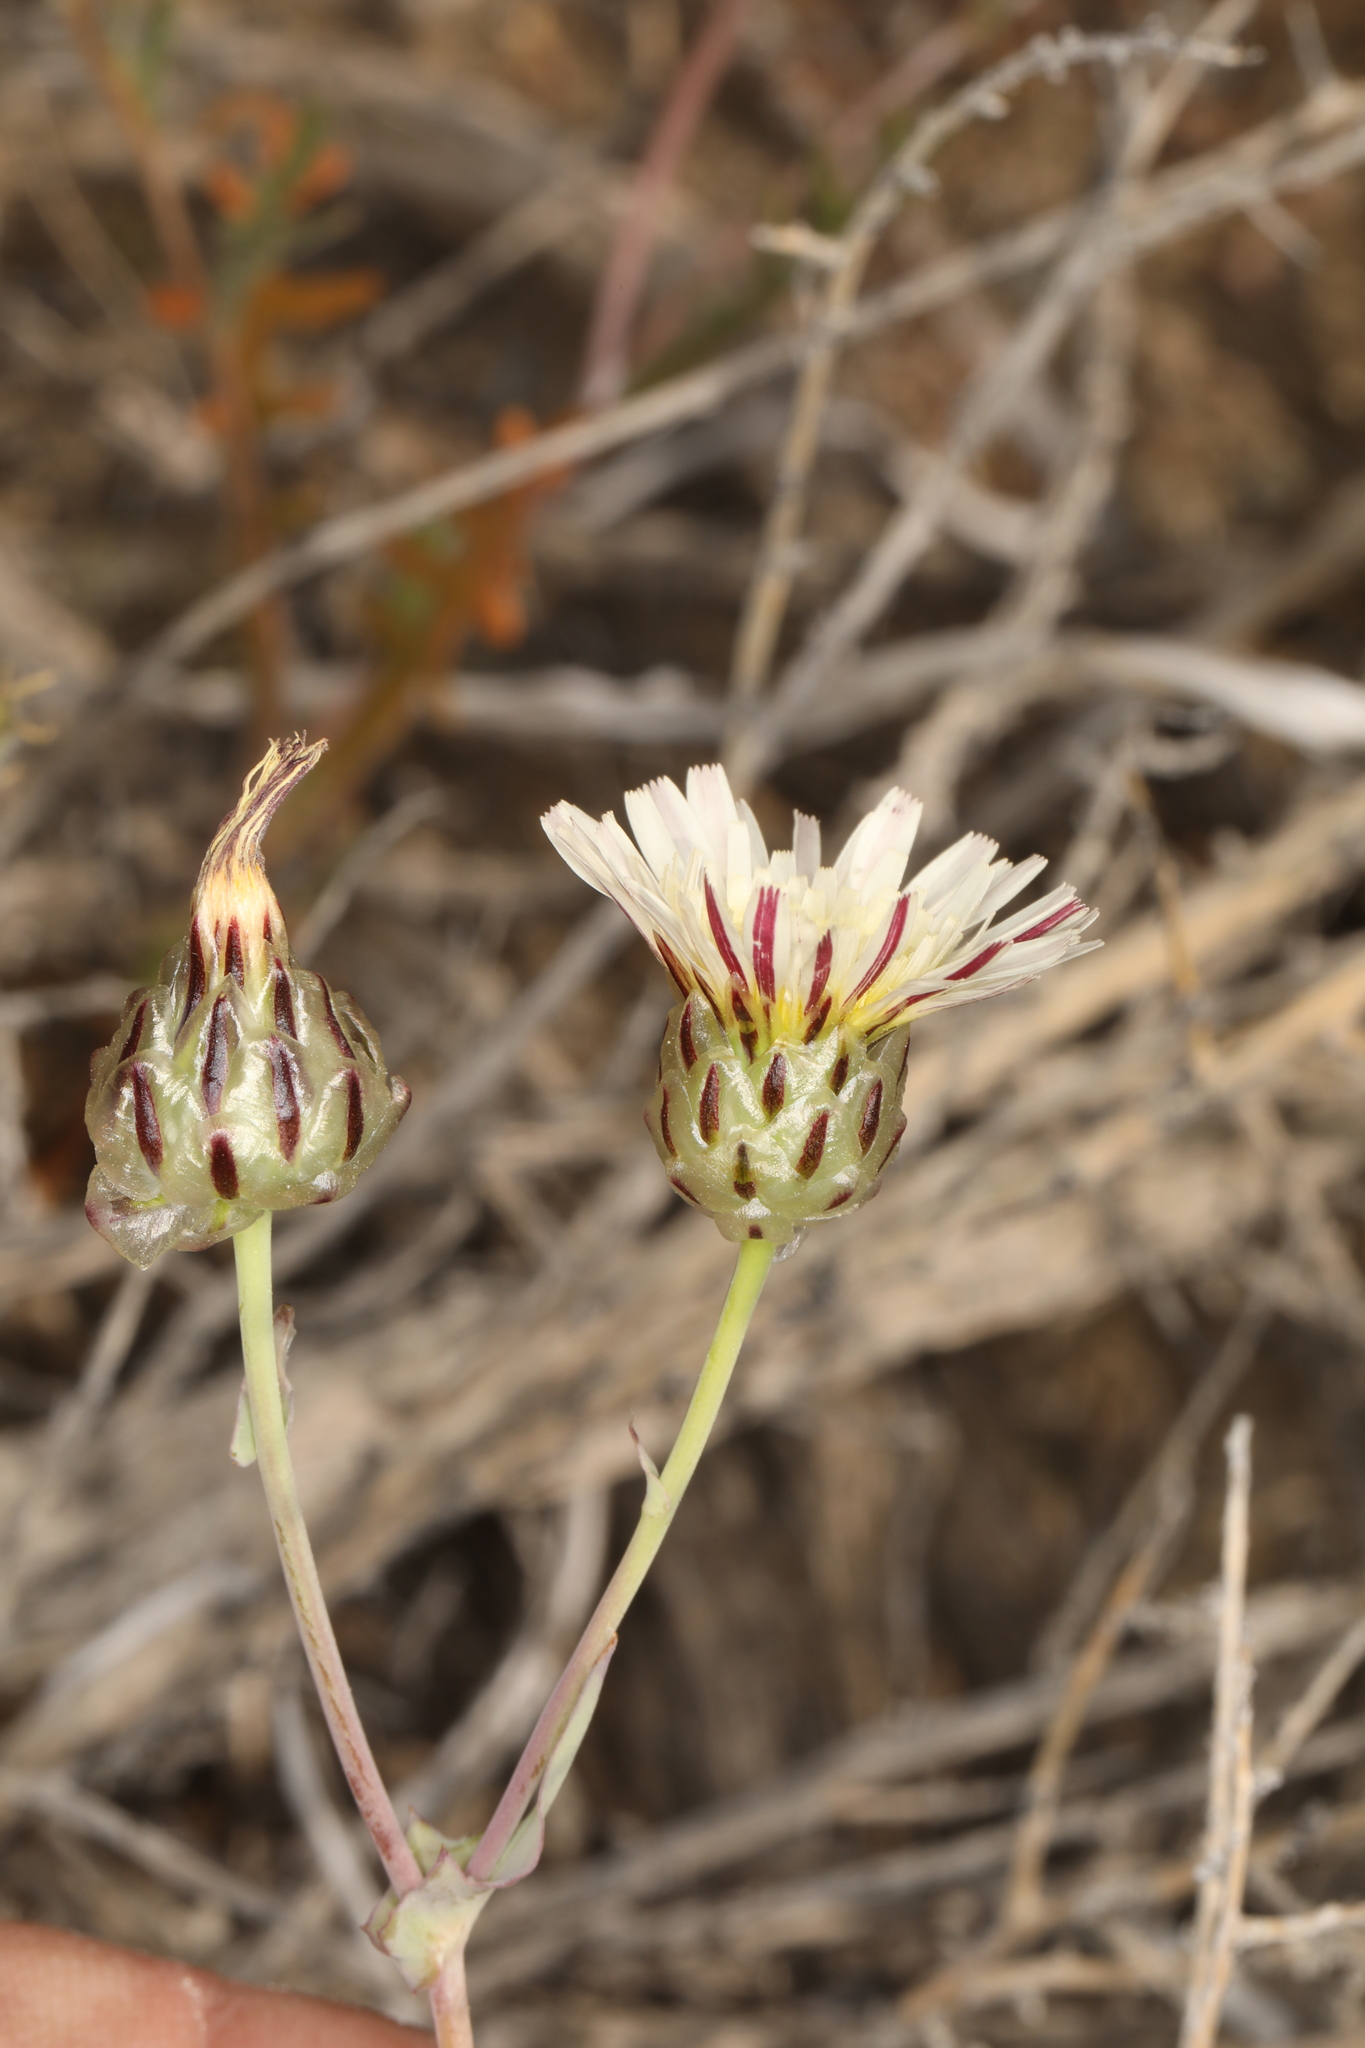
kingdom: Plantae
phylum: Tracheophyta
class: Magnoliopsida
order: Asterales
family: Asteraceae
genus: Malacothrix
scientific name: Malacothrix coulteri
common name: Snake's-head
